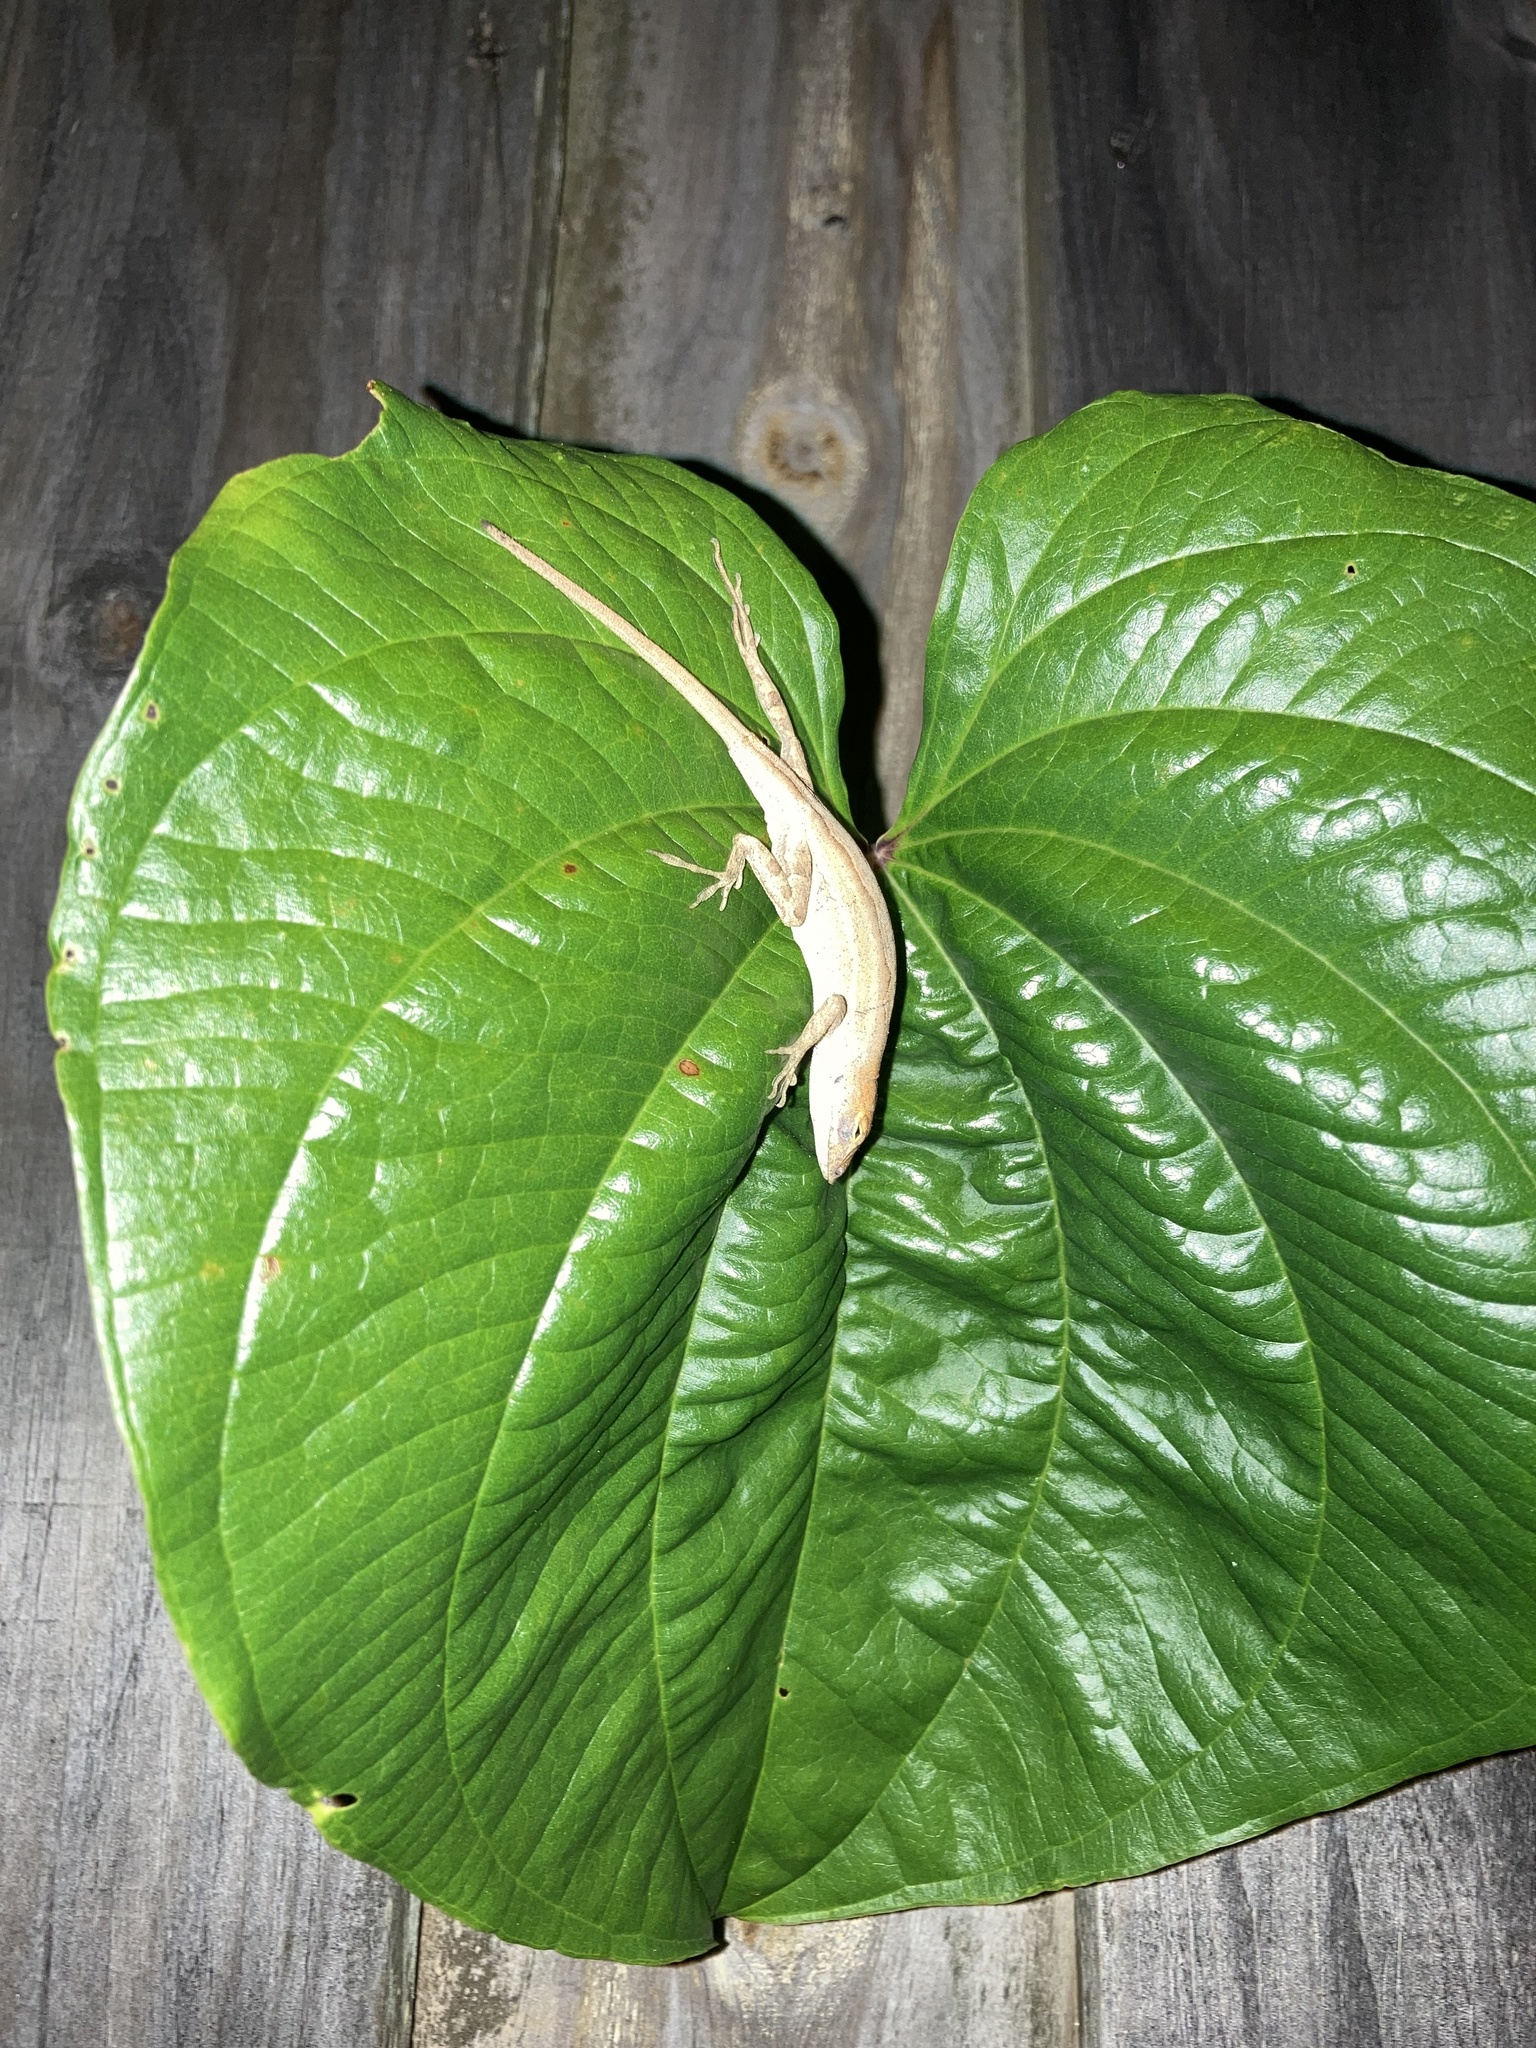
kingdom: Animalia
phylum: Chordata
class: Squamata
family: Dactyloidae
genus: Anolis
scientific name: Anolis sagrei
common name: Brown anole
